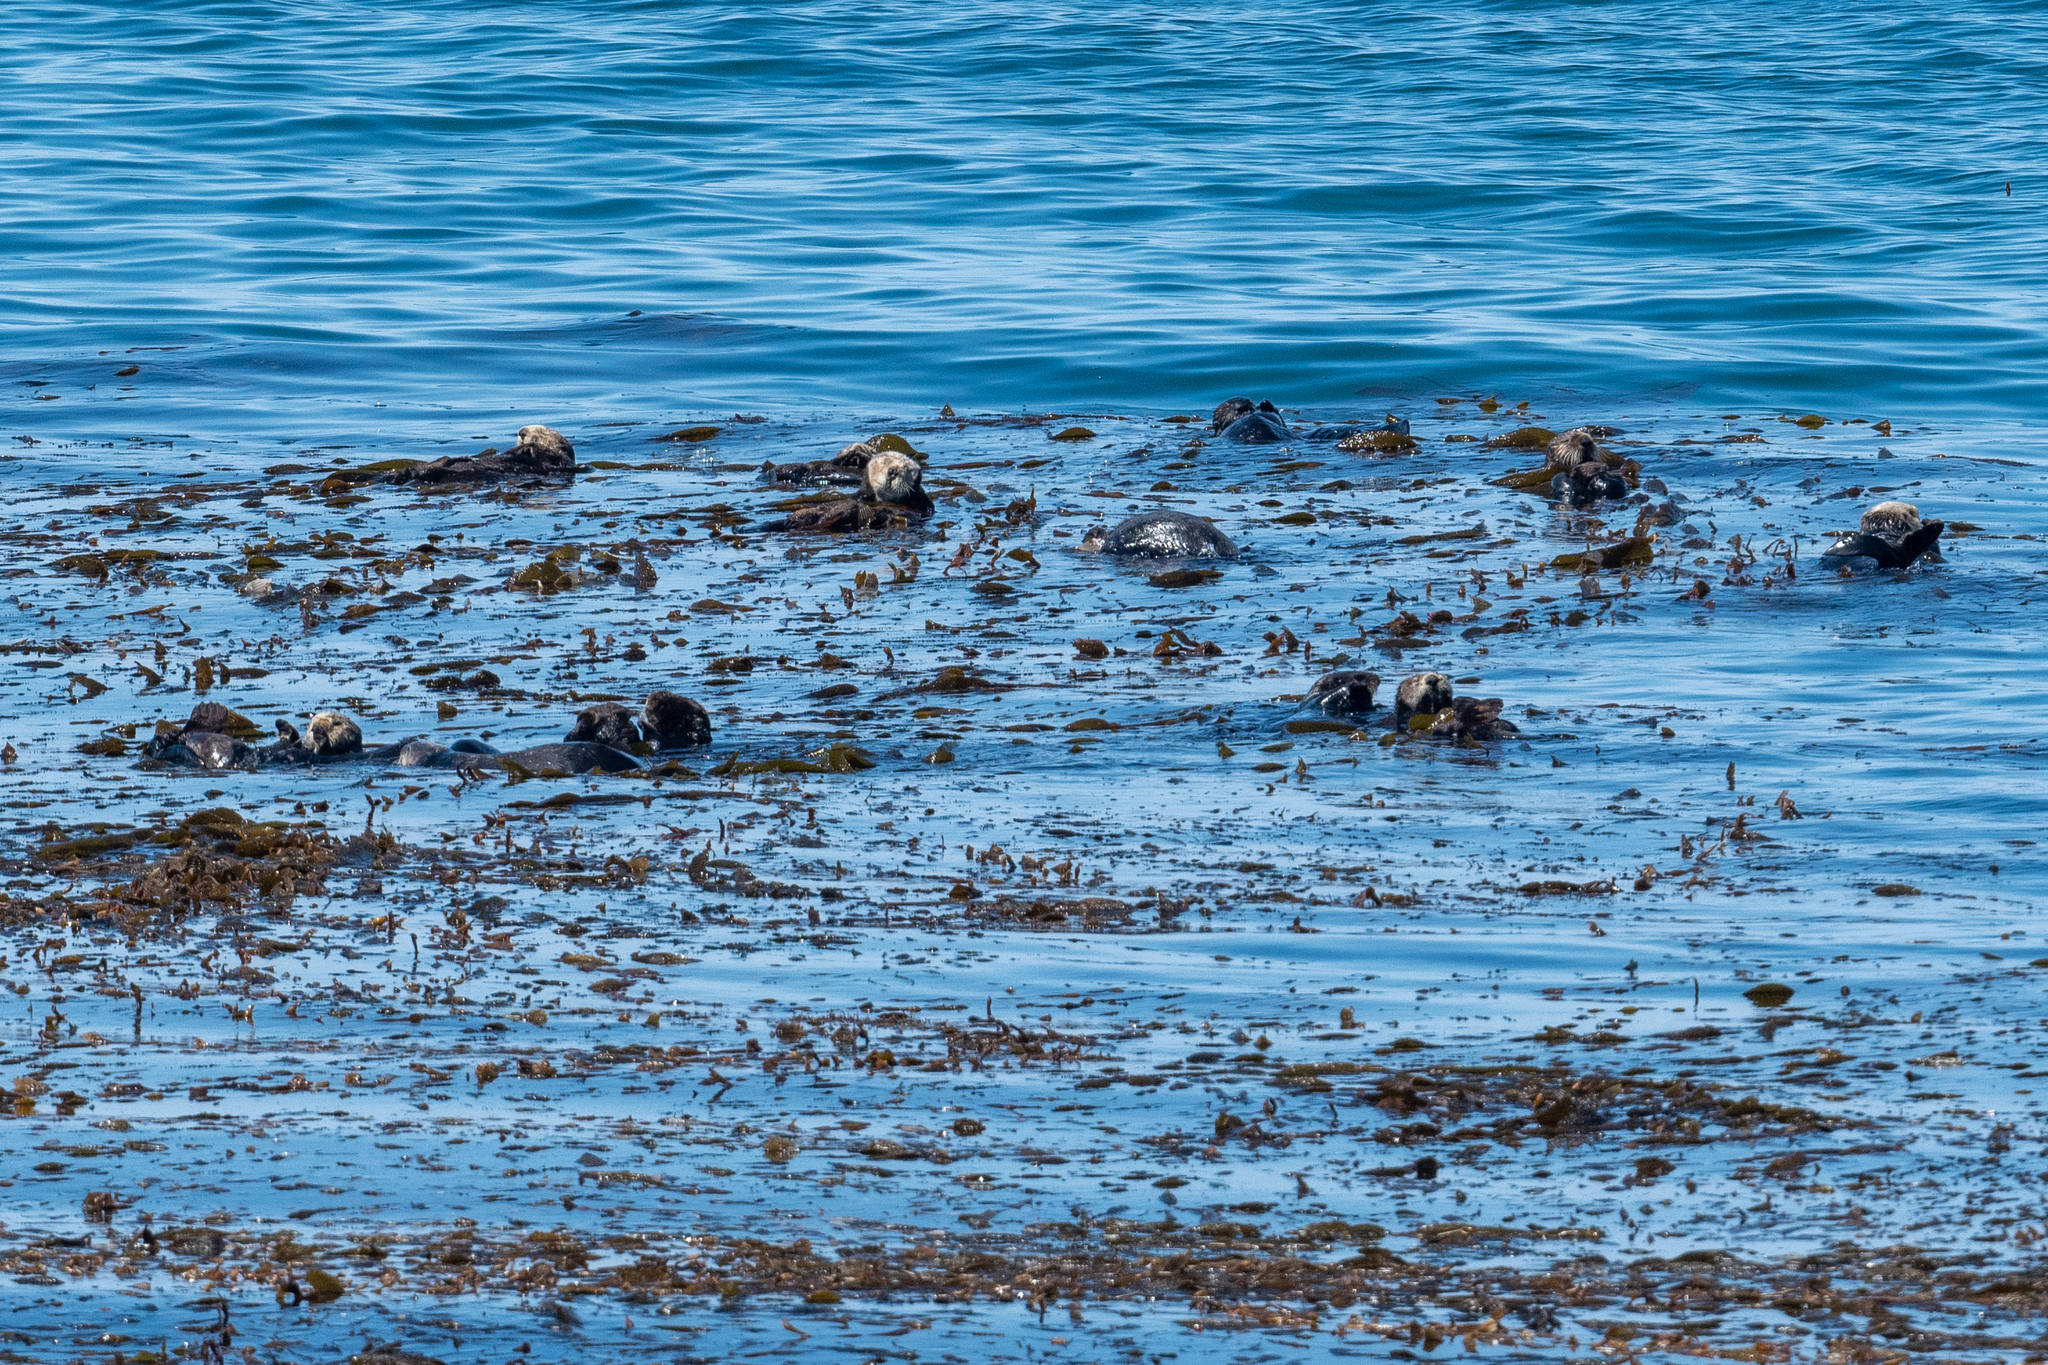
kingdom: Animalia
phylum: Chordata
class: Mammalia
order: Carnivora
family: Mustelidae
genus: Enhydra
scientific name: Enhydra lutris
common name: Sea otter
